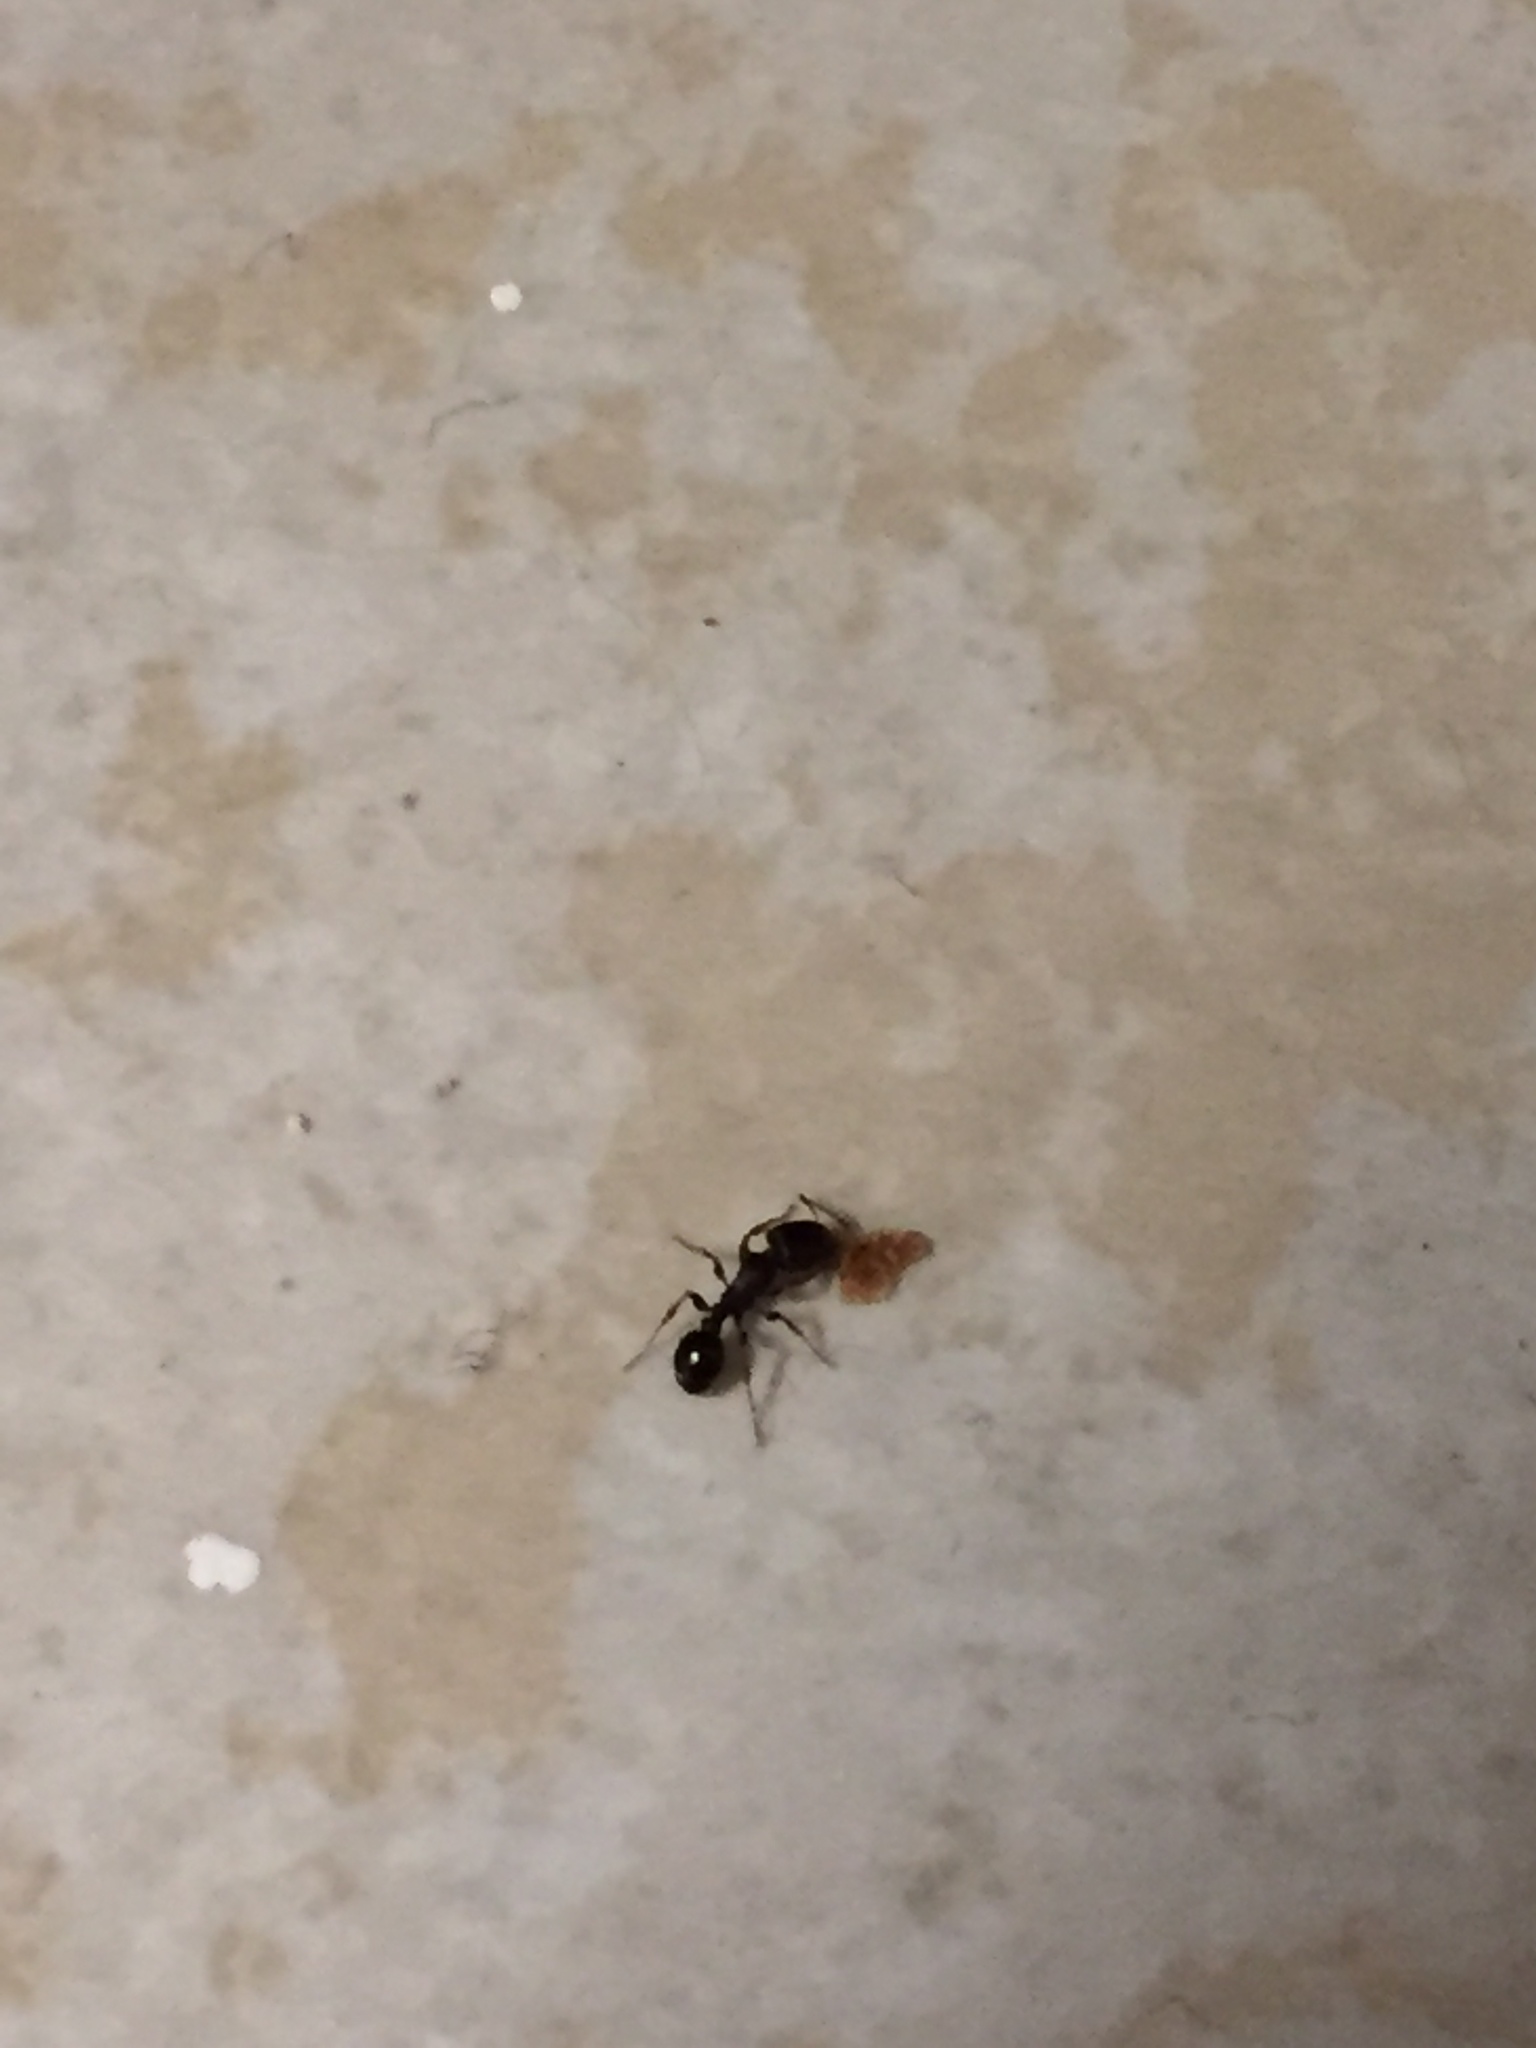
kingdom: Animalia
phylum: Arthropoda
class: Insecta
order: Hymenoptera
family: Formicidae
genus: Tetramorium
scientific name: Tetramorium immigrans
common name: Pavement ant
